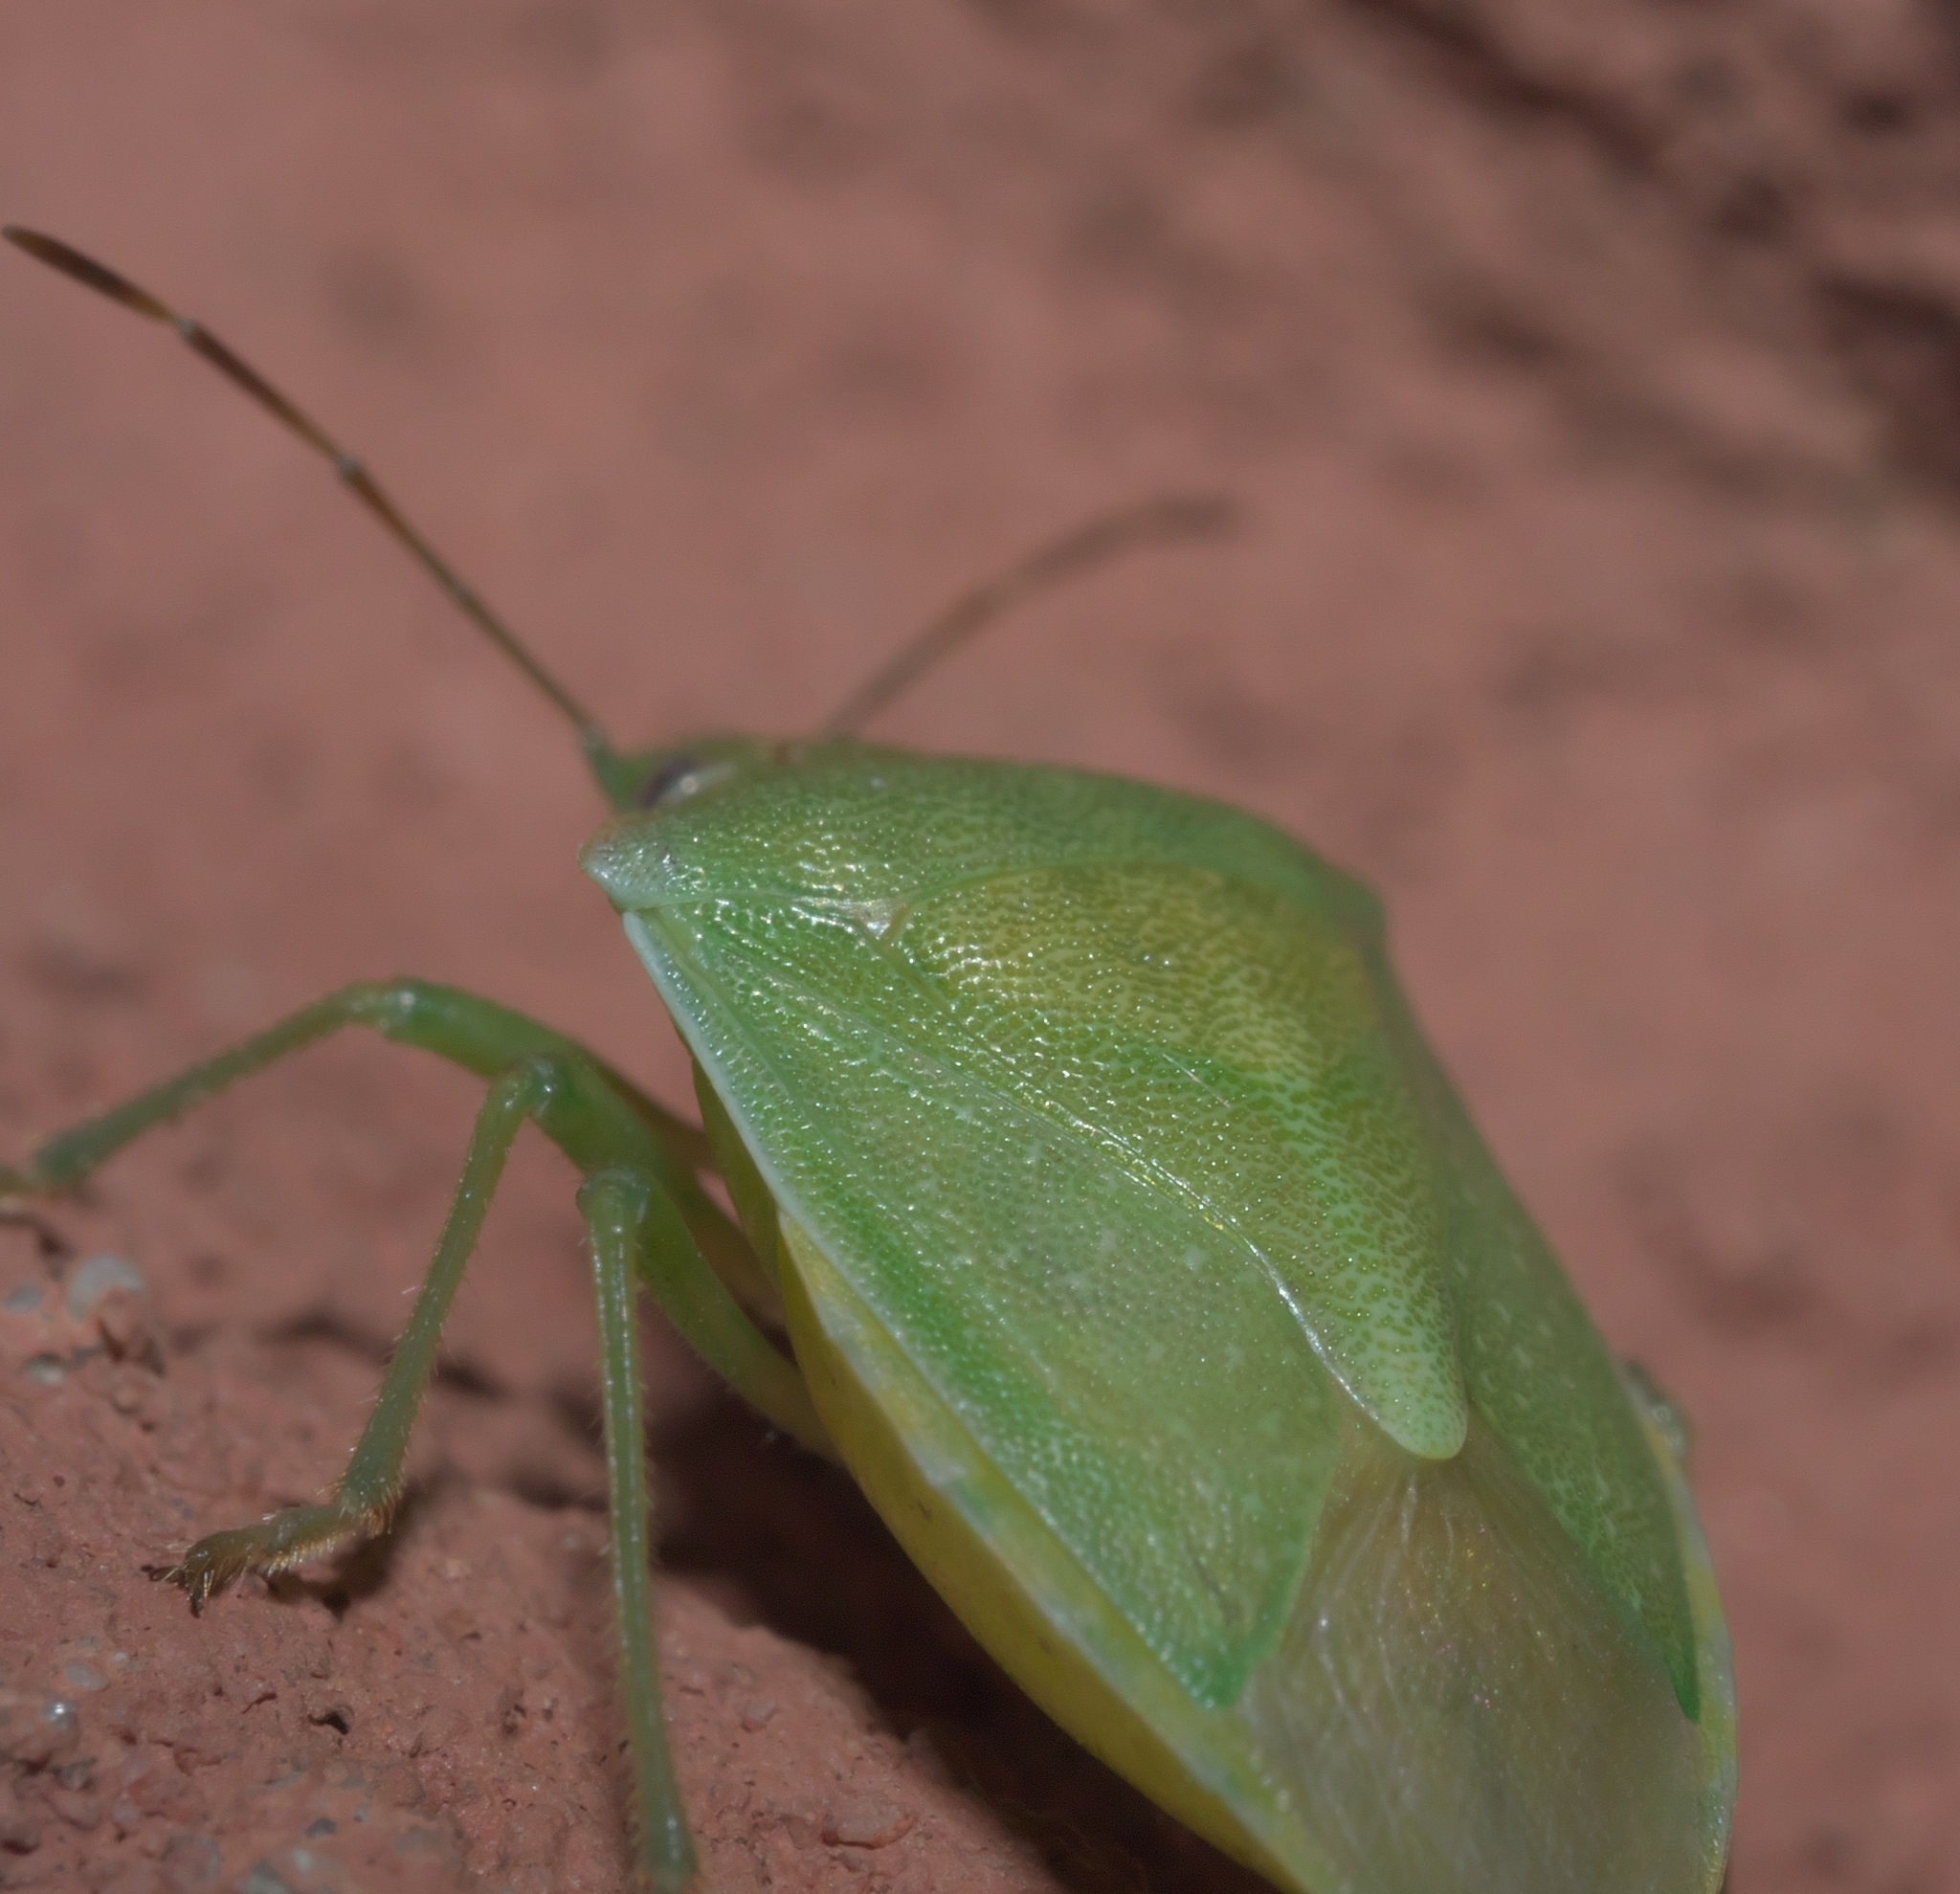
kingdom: Animalia
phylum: Arthropoda
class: Insecta
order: Hemiptera
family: Pentatomidae
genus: Thyanta
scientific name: Thyanta accerra
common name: Stink bug
